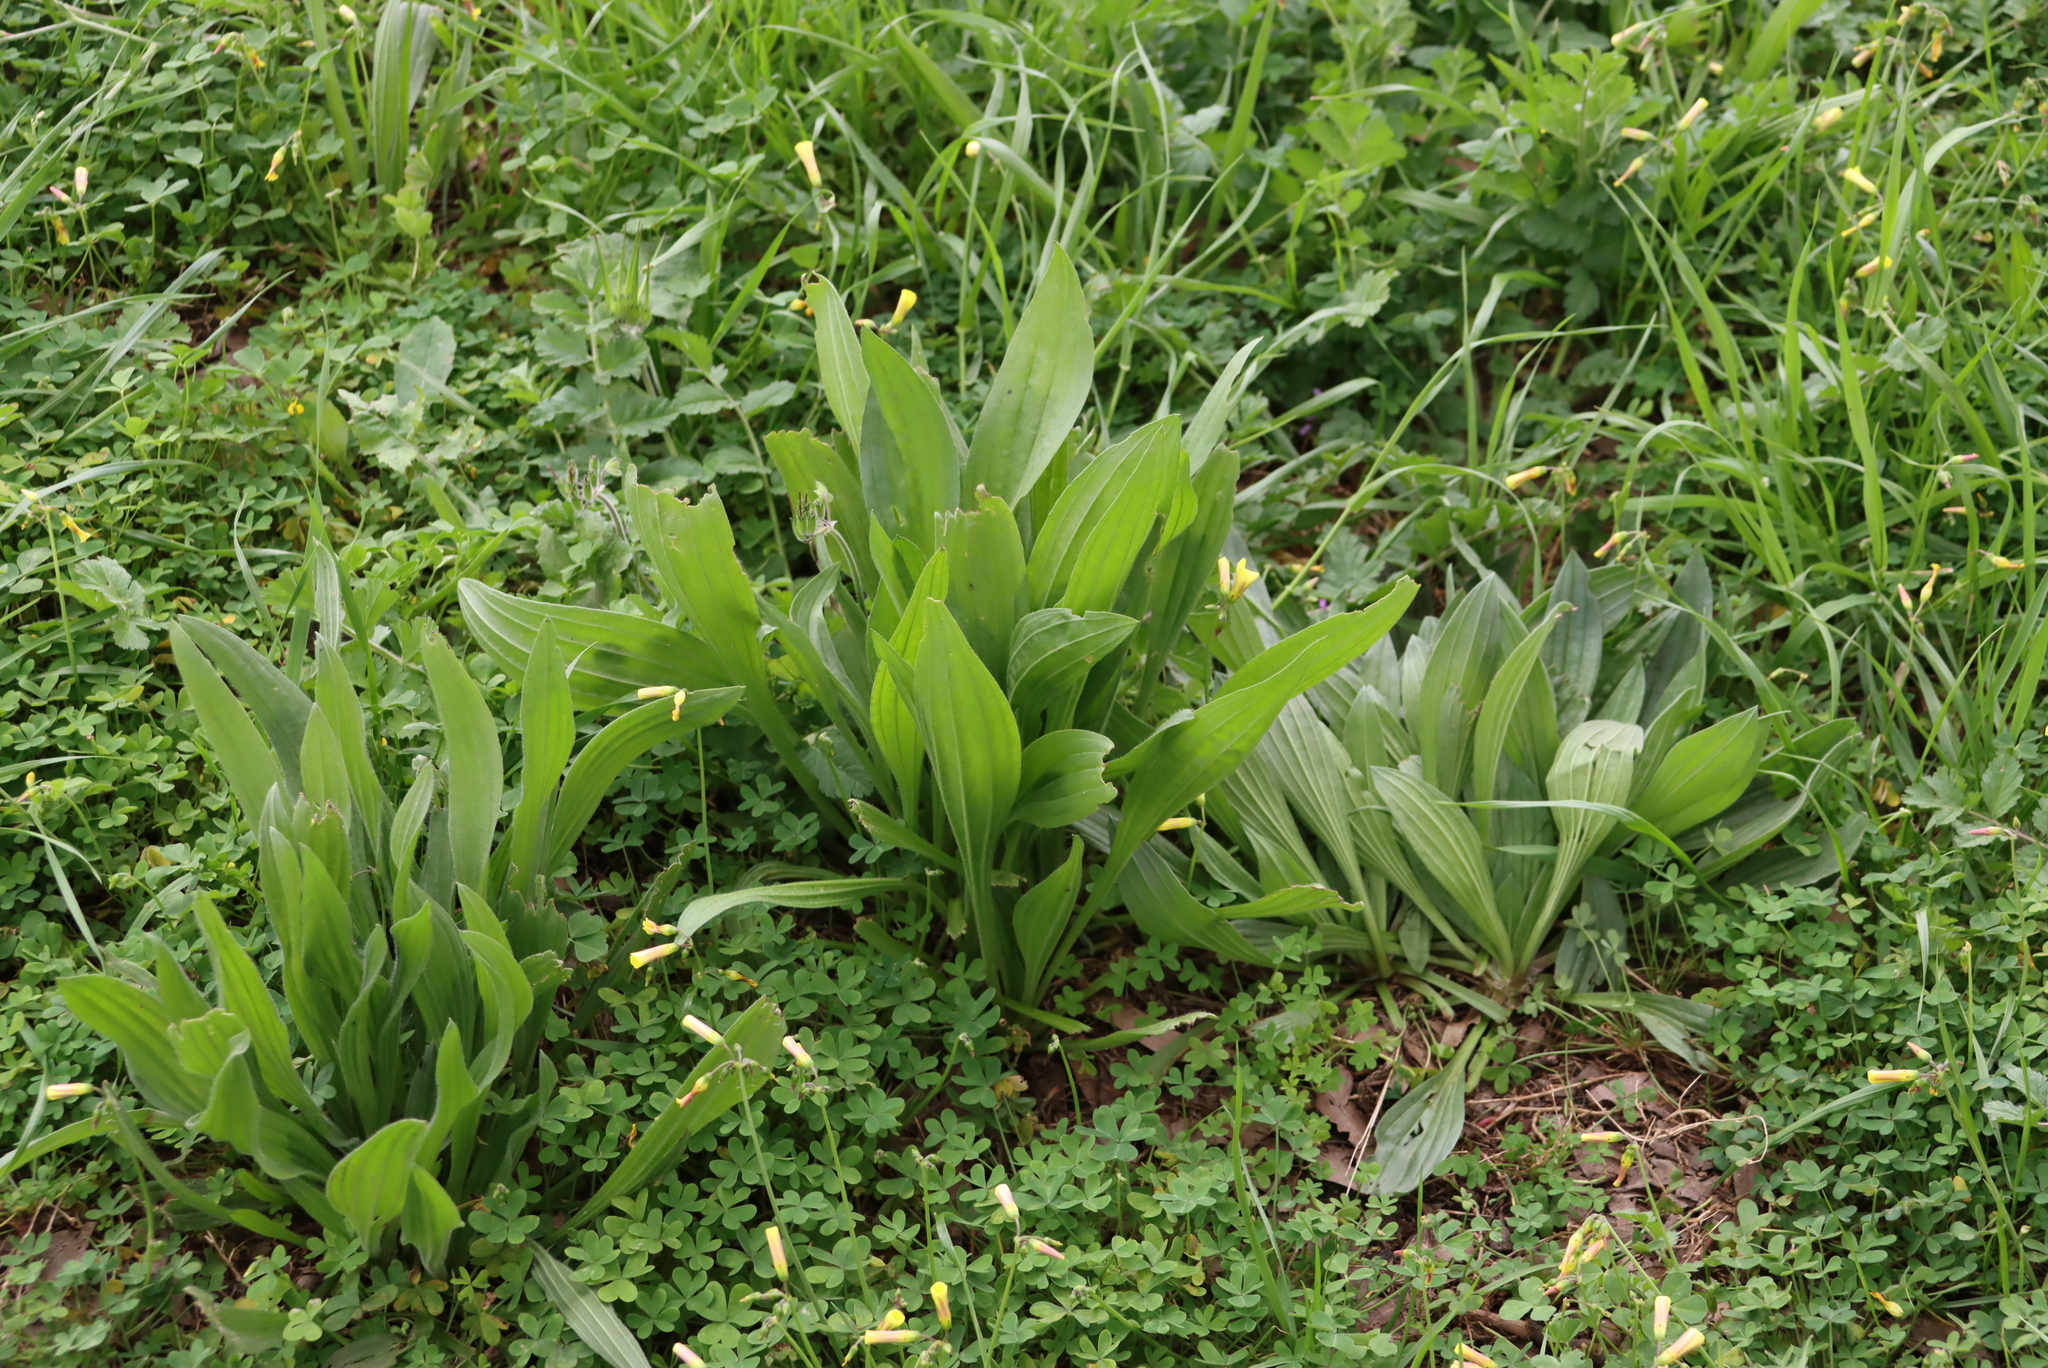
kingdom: Plantae
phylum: Tracheophyta
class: Magnoliopsida
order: Lamiales
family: Plantaginaceae
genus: Plantago
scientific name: Plantago lanceolata
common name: Ribwort plantain
